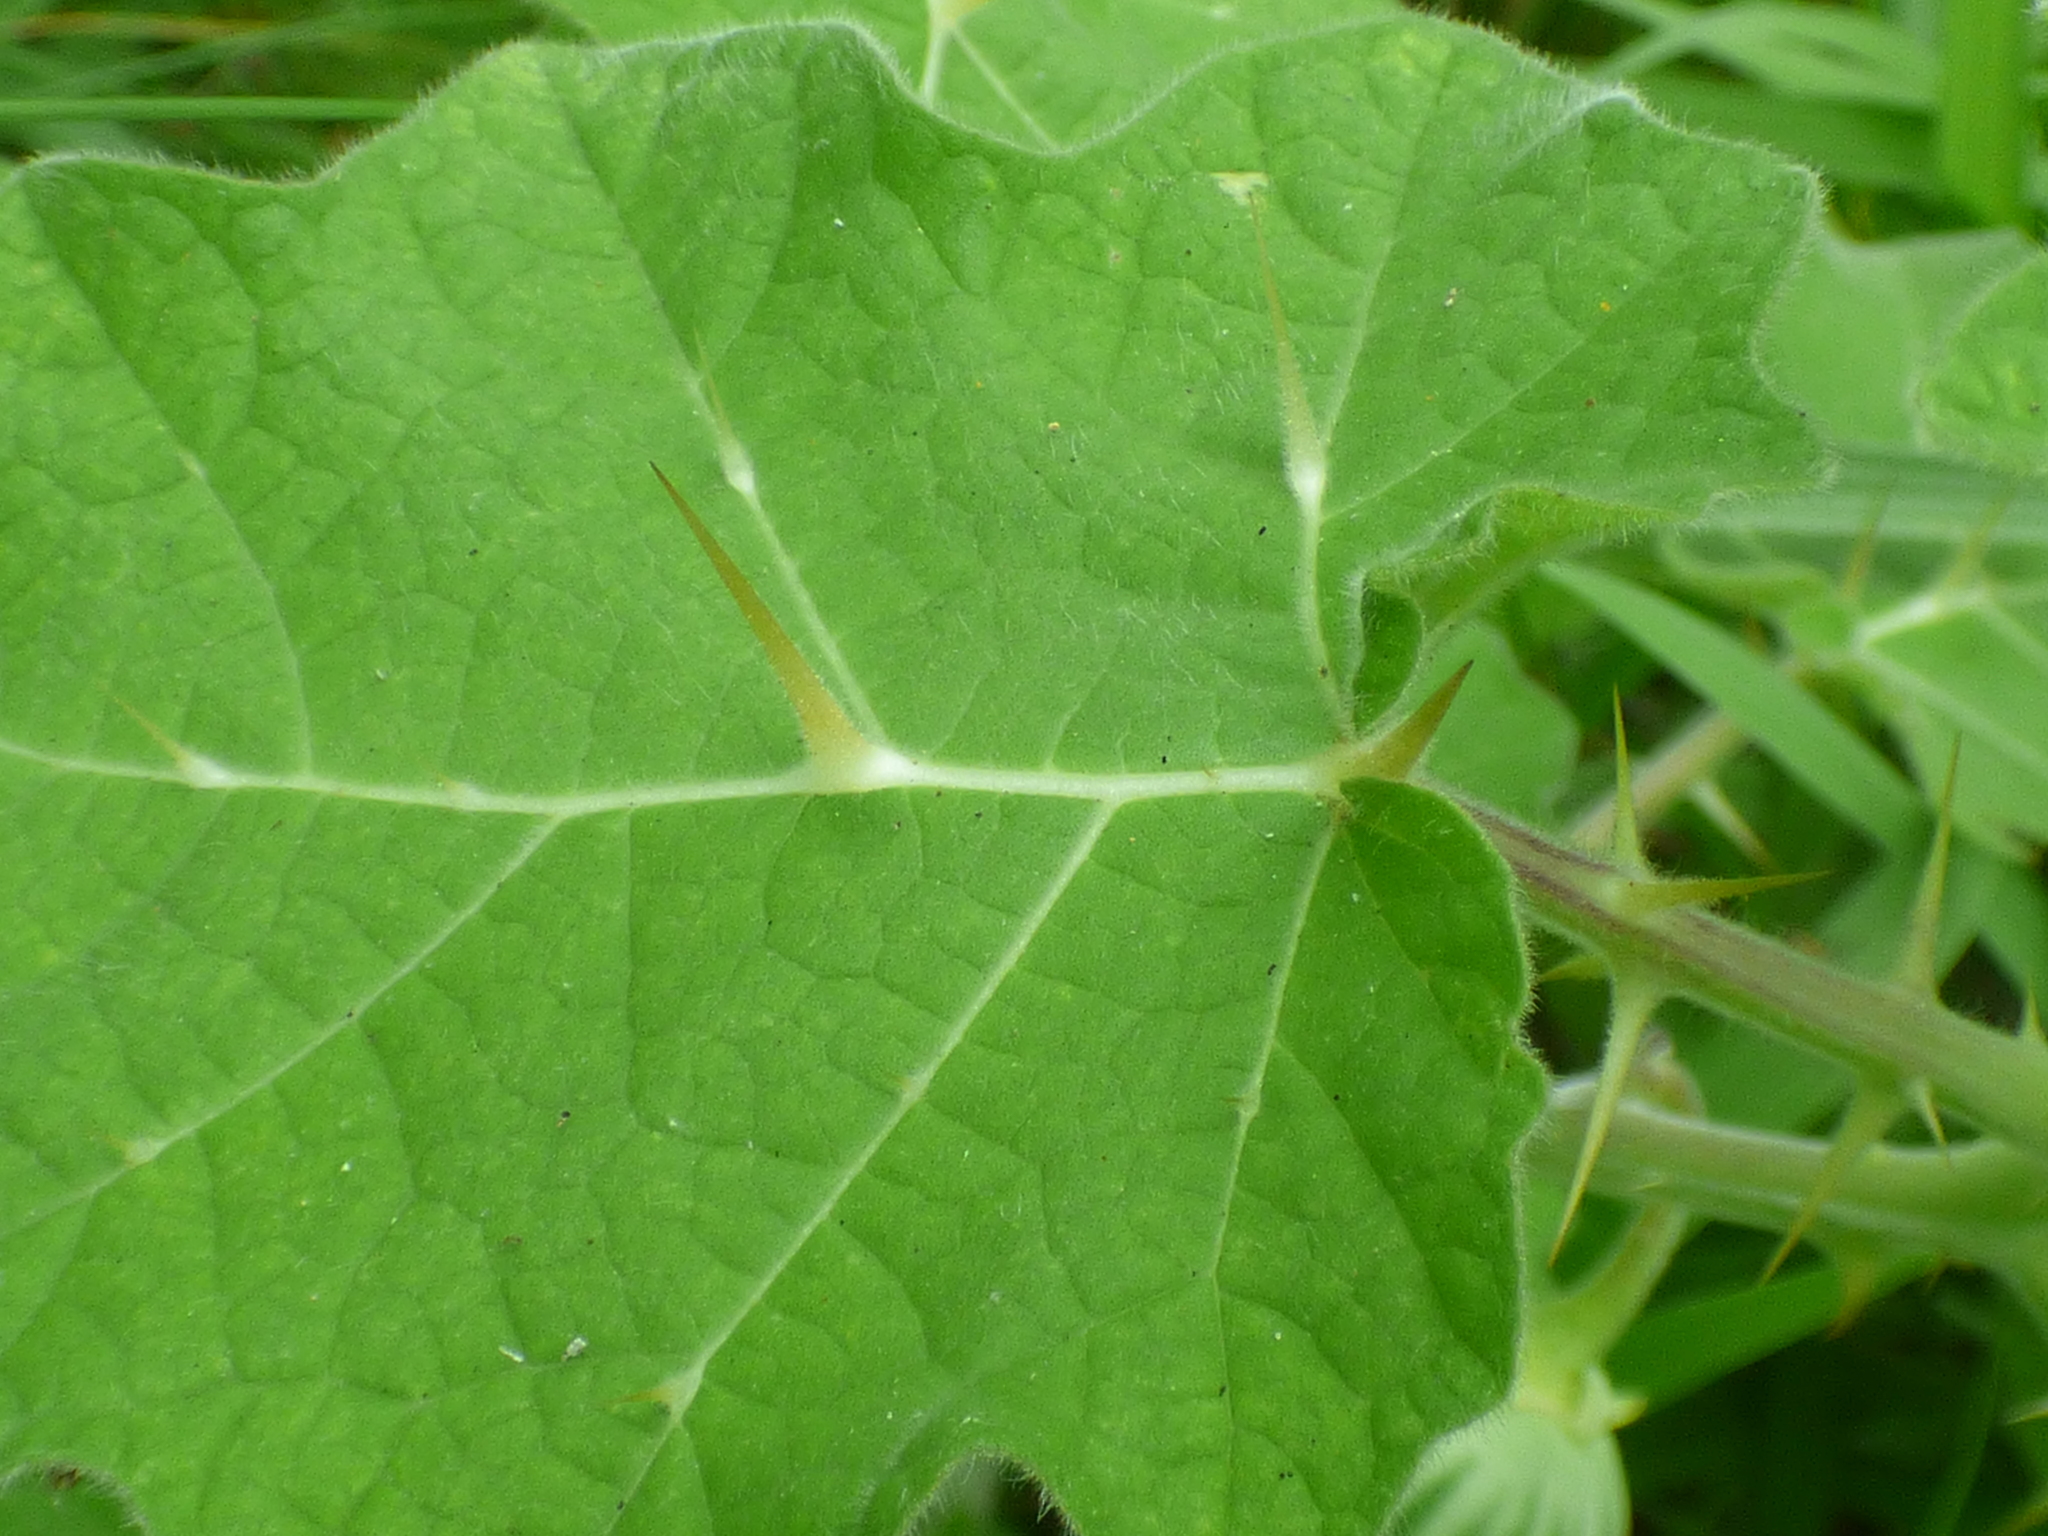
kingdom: Plantae
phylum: Tracheophyta
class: Magnoliopsida
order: Solanales
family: Solanaceae
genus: Solanum
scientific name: Solanum viarum
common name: Tropical soda apple
